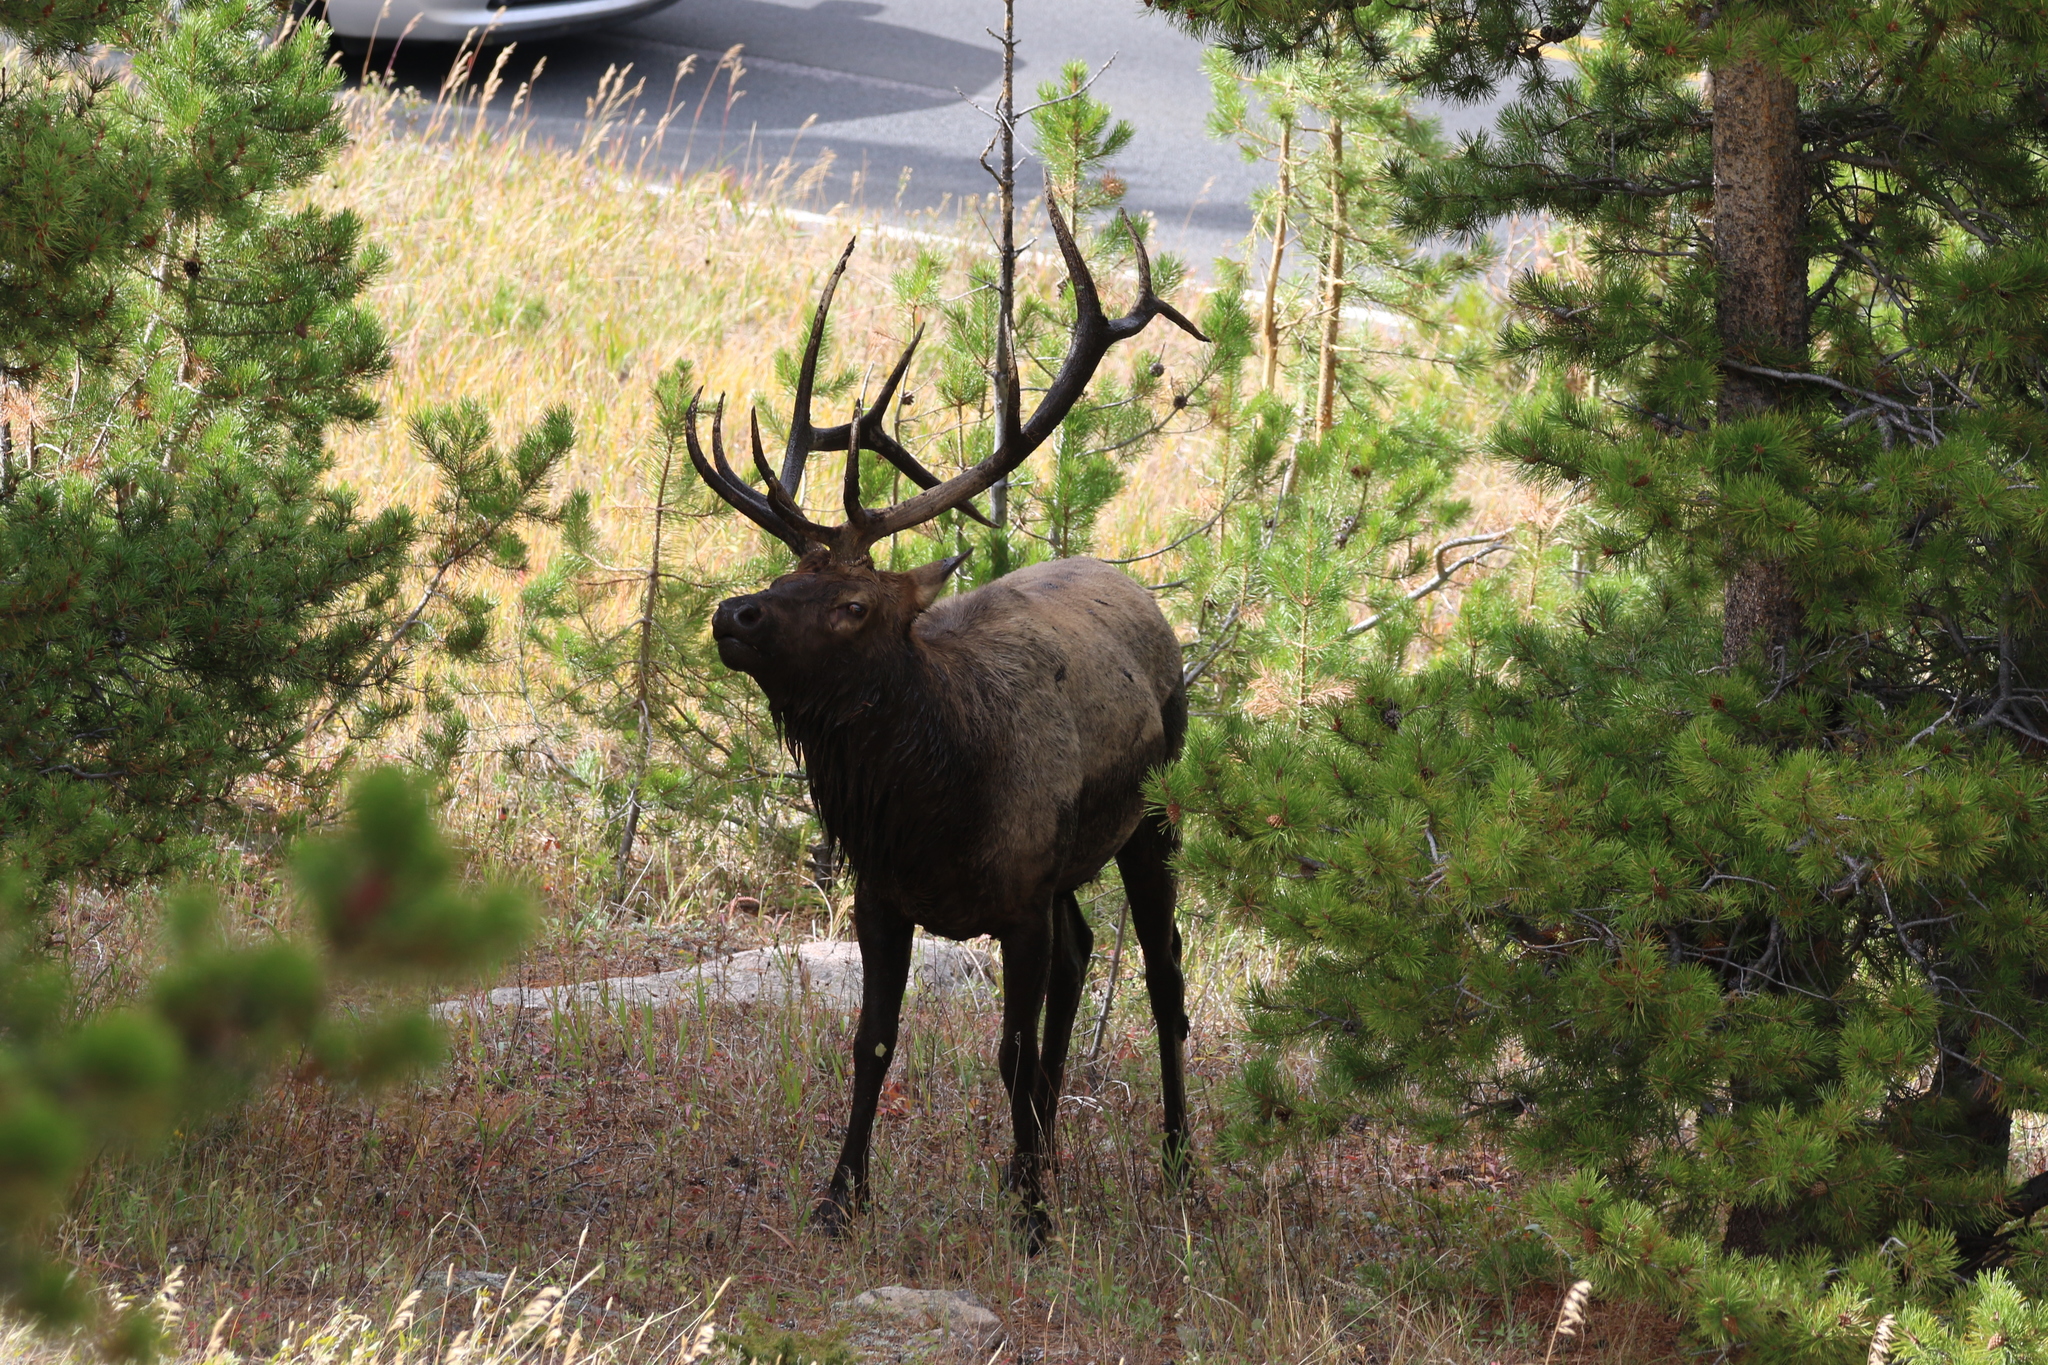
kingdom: Animalia
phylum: Chordata
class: Mammalia
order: Artiodactyla
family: Cervidae
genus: Cervus
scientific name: Cervus elaphus
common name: Red deer
